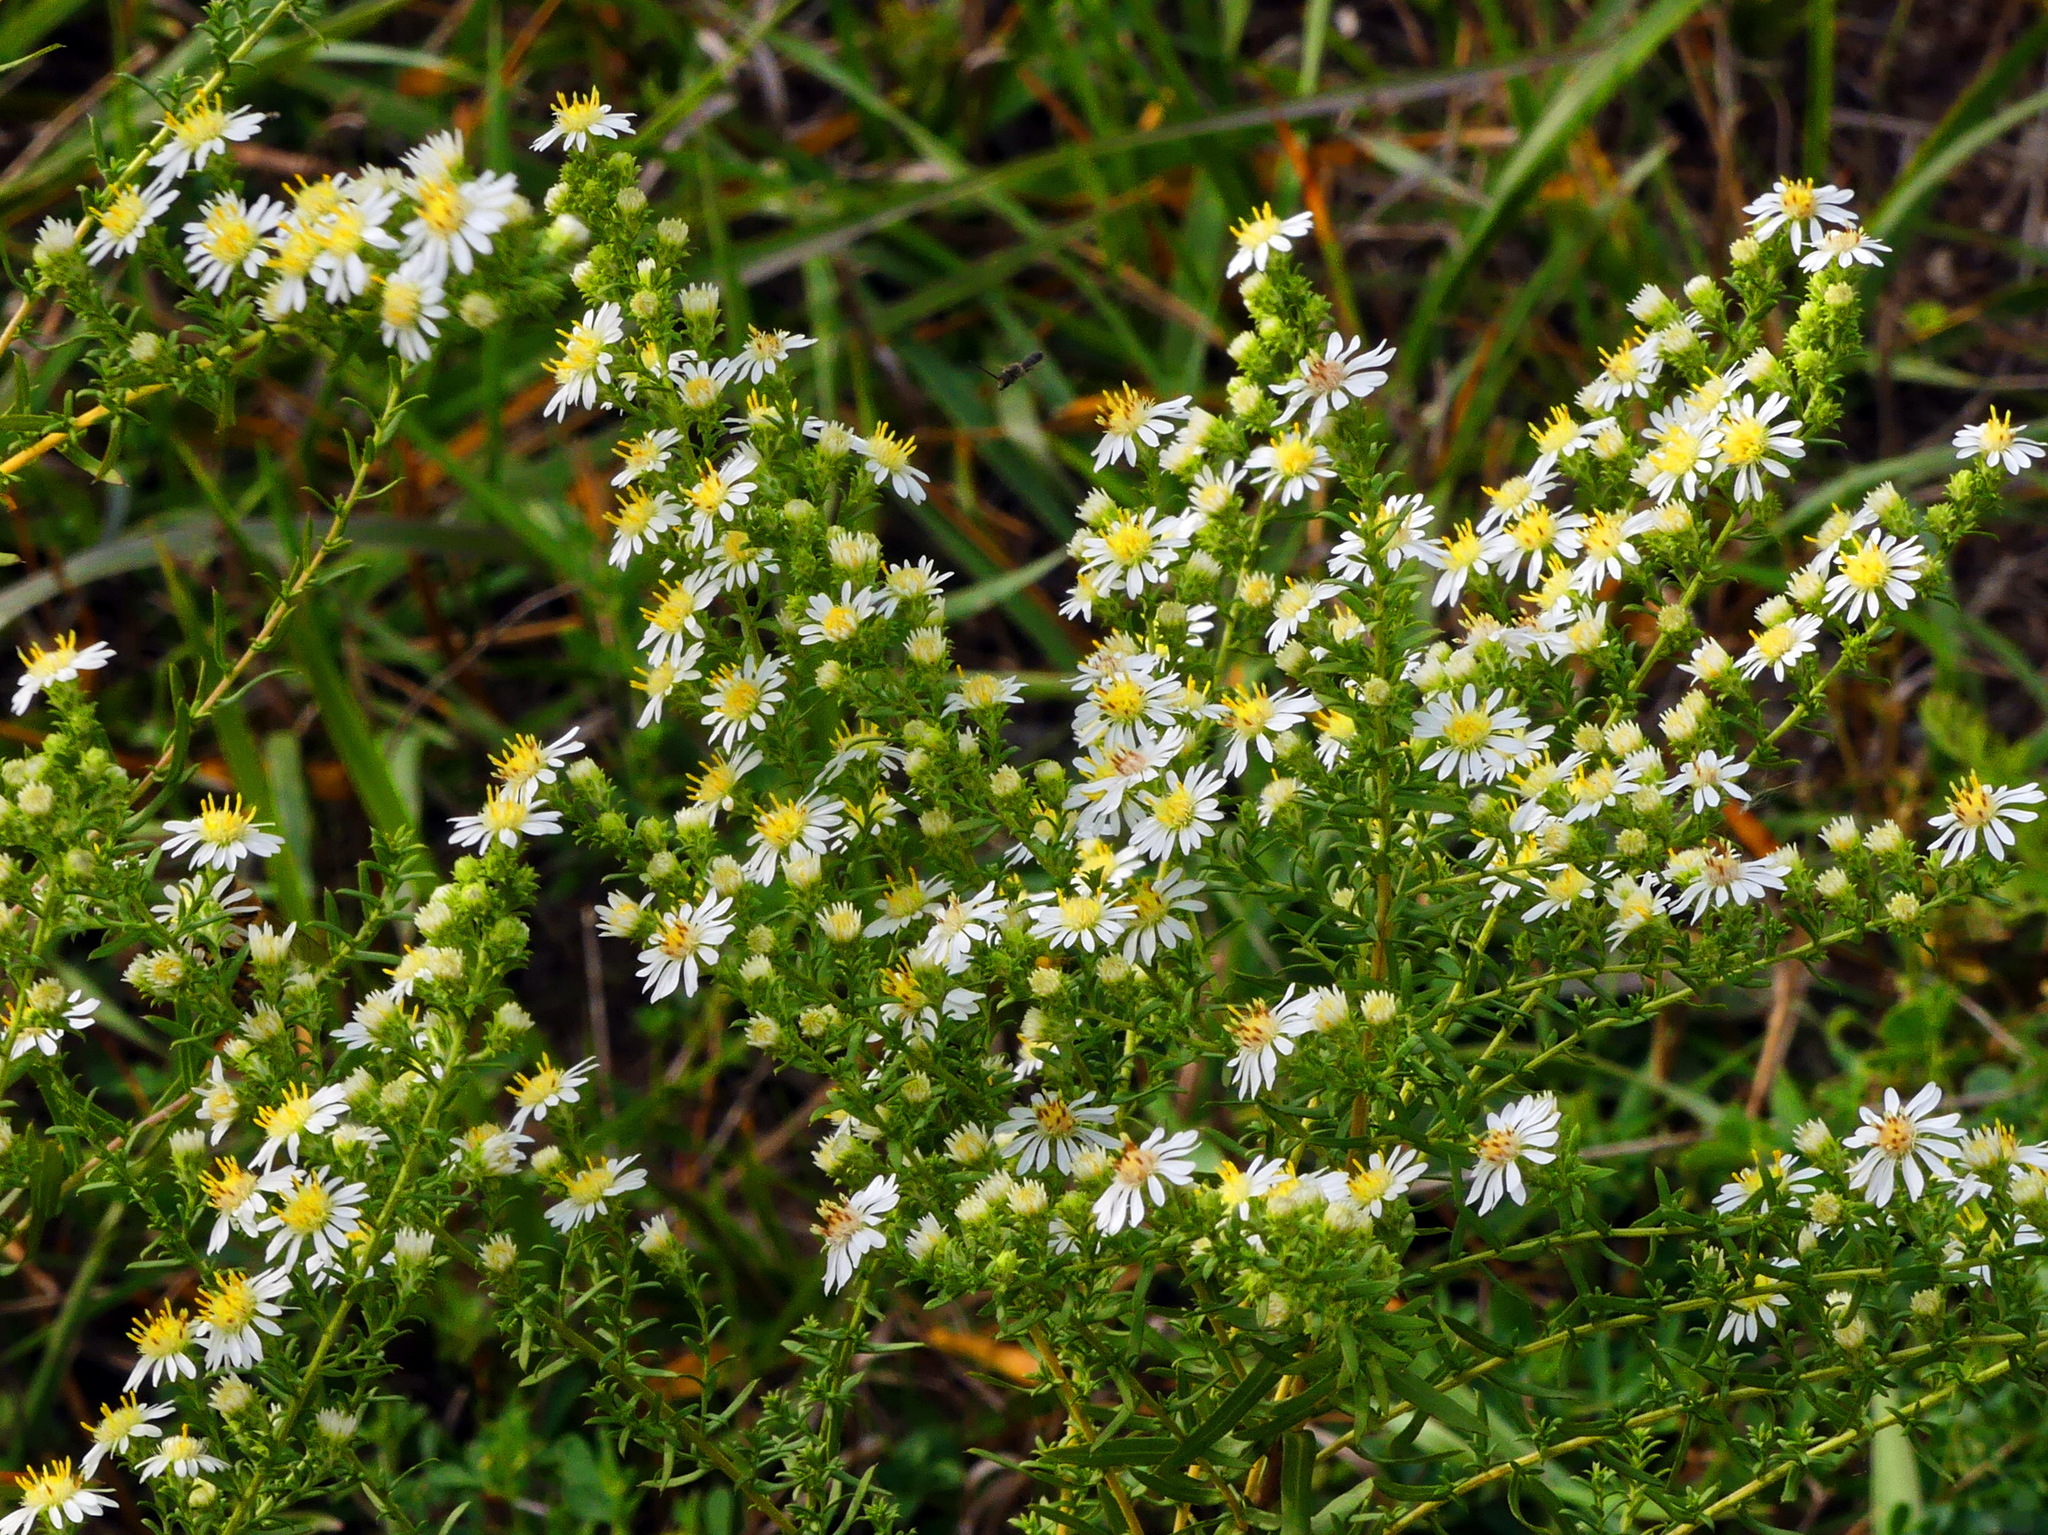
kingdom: Plantae
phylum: Tracheophyta
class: Magnoliopsida
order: Asterales
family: Asteraceae
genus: Symphyotrichum
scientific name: Symphyotrichum ericoides
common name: Heath aster
